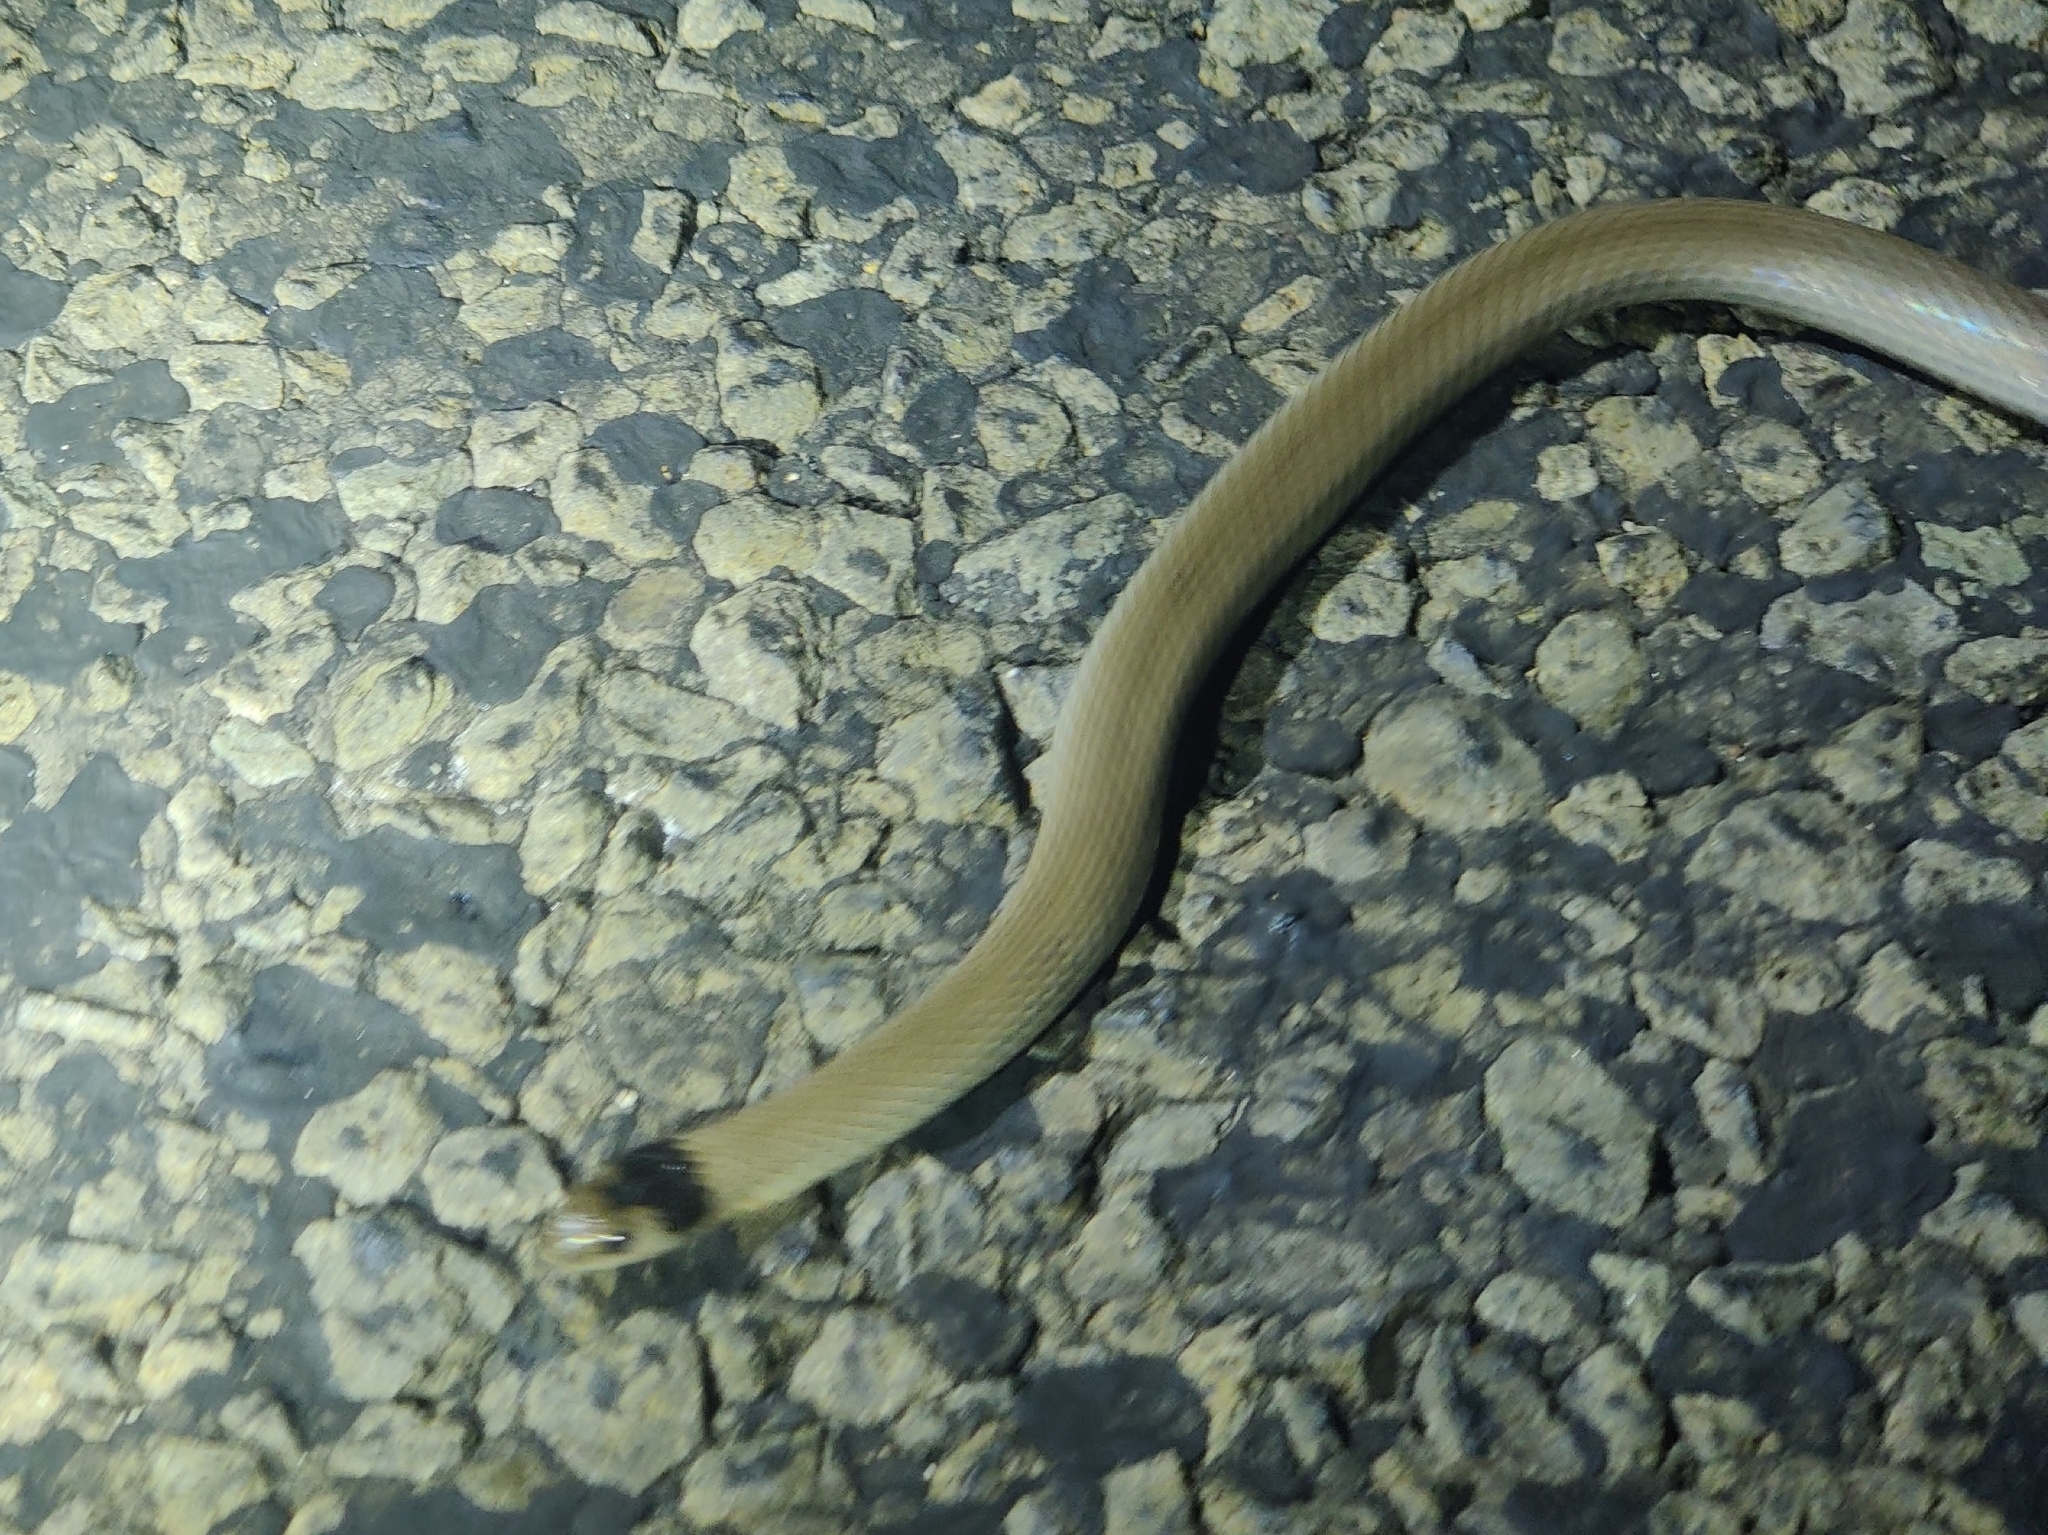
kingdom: Animalia
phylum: Chordata
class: Squamata
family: Elapidae
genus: Hemiaspis
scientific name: Hemiaspis damelii
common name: Grey snake
